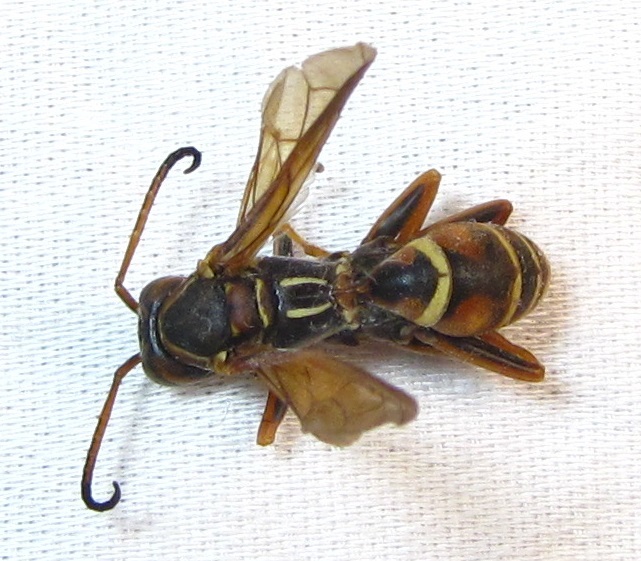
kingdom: Animalia
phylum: Arthropoda
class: Insecta
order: Hymenoptera
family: Eumenidae
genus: Polistes
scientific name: Polistes fuscatus
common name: Dark paper wasp
